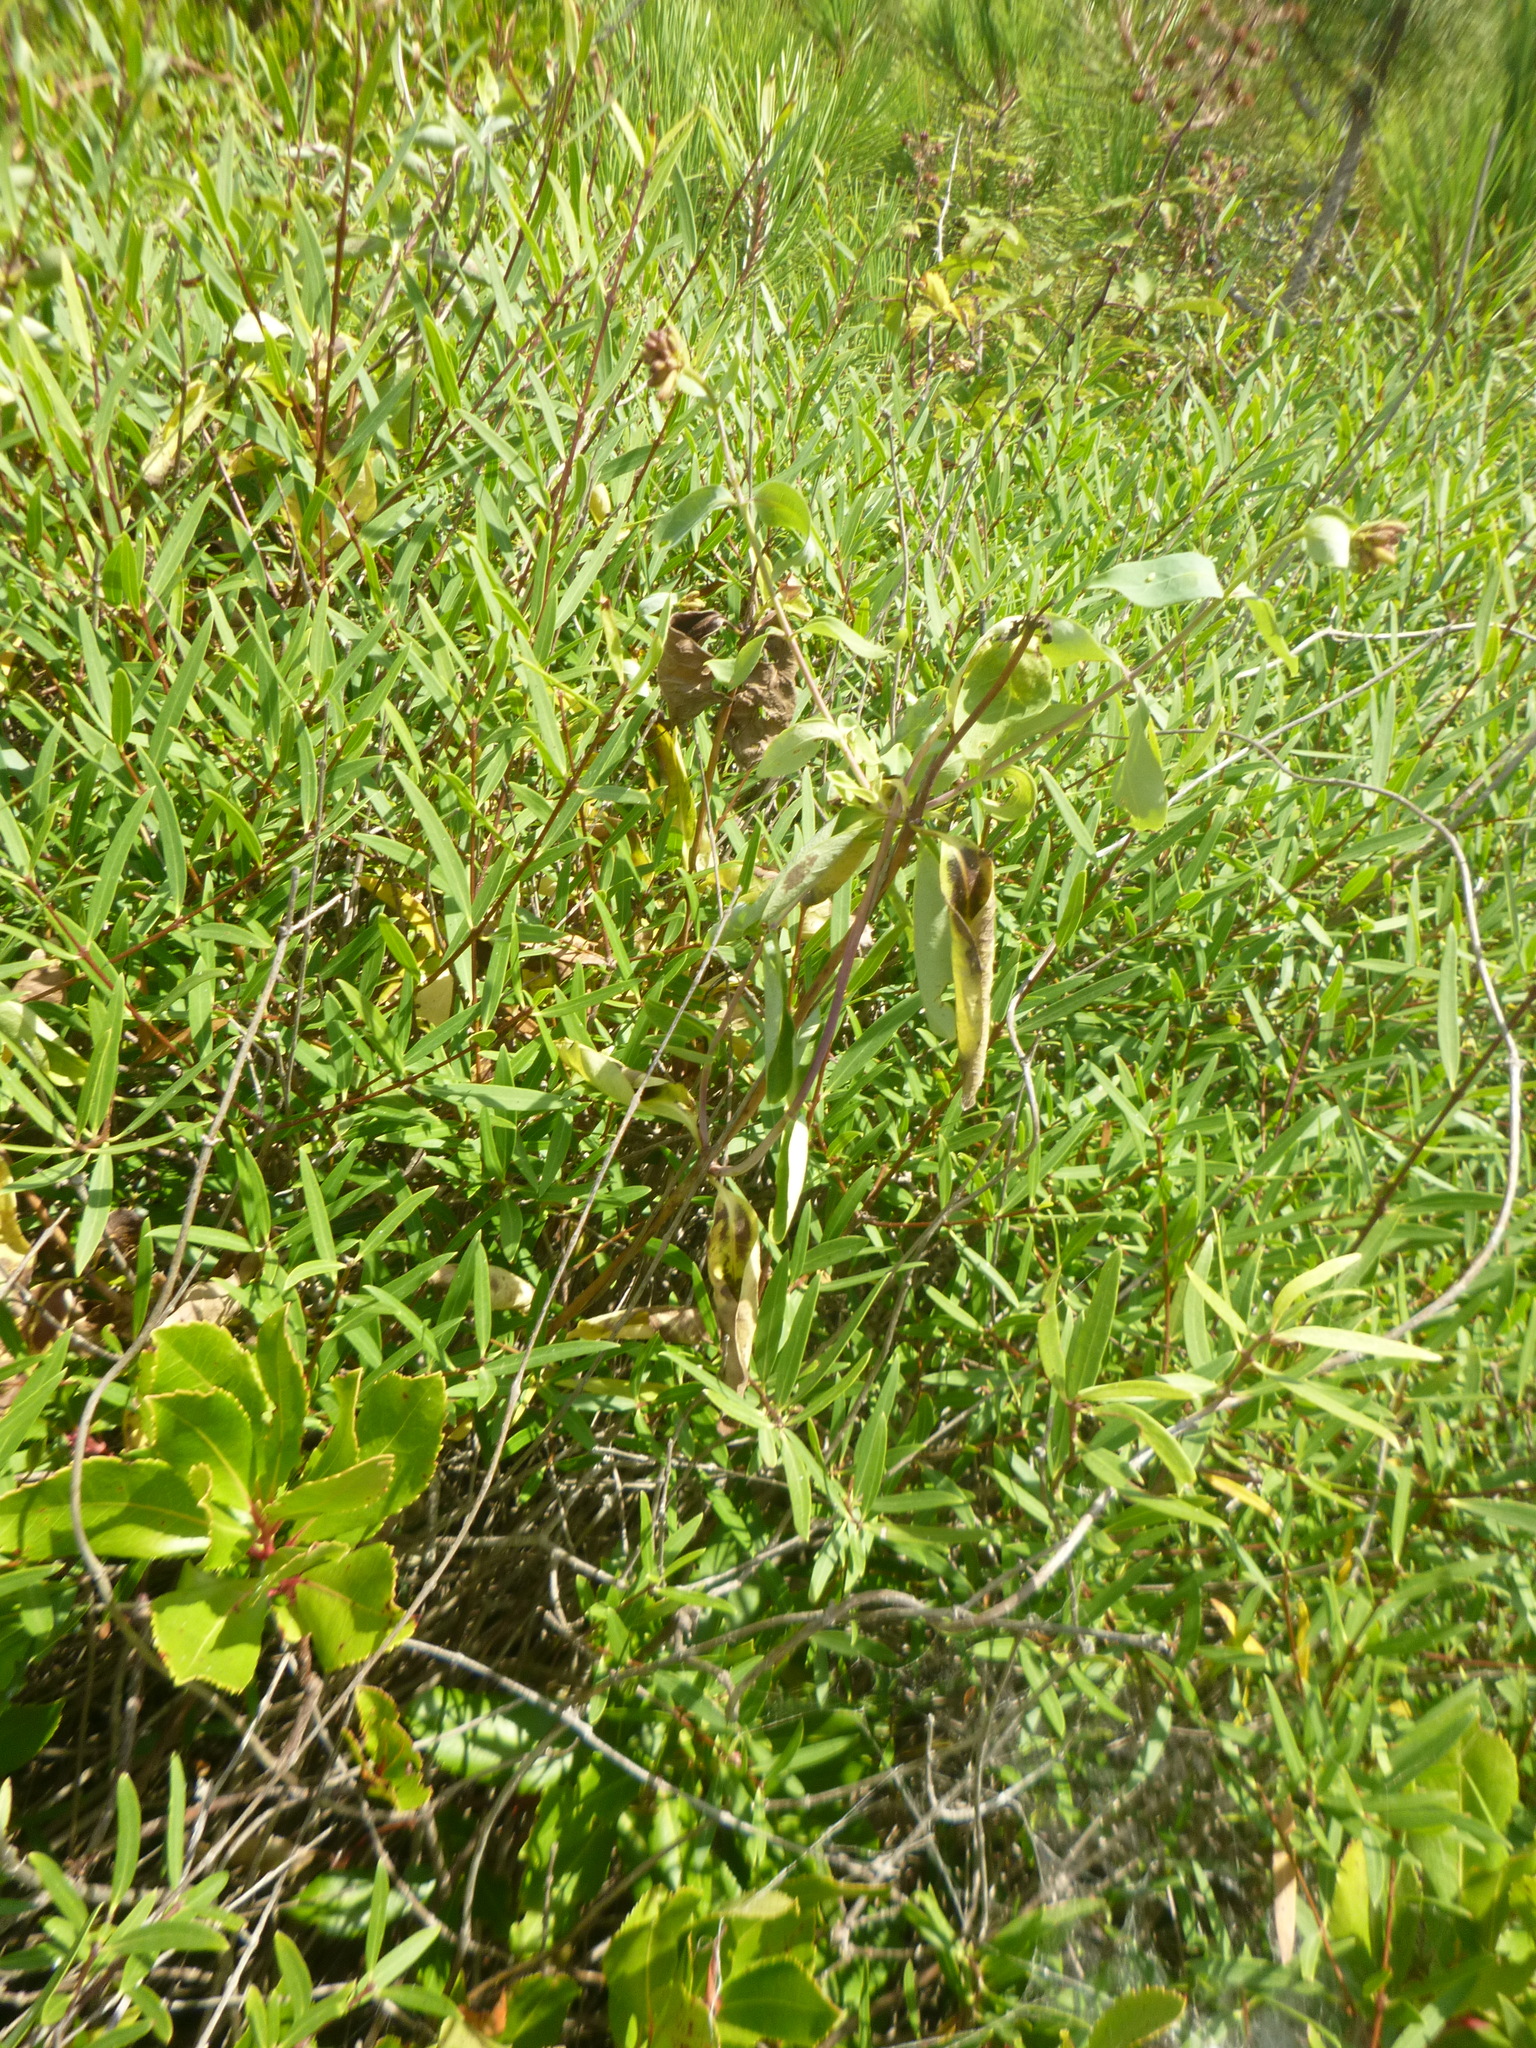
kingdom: Plantae
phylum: Tracheophyta
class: Magnoliopsida
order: Dipsacales
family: Caprifoliaceae
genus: Lonicera
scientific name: Lonicera periclymenum
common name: European honeysuckle
